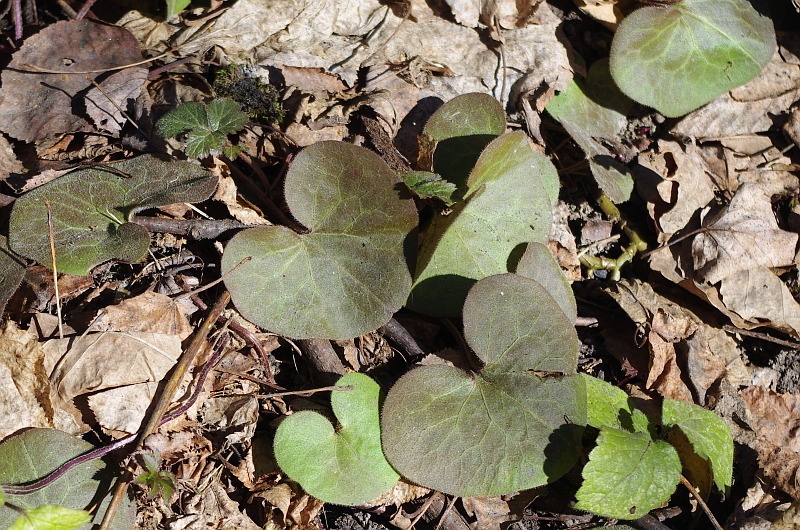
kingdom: Plantae
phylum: Tracheophyta
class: Magnoliopsida
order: Piperales
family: Aristolochiaceae
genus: Asarum
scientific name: Asarum europaeum
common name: Asarabacca
